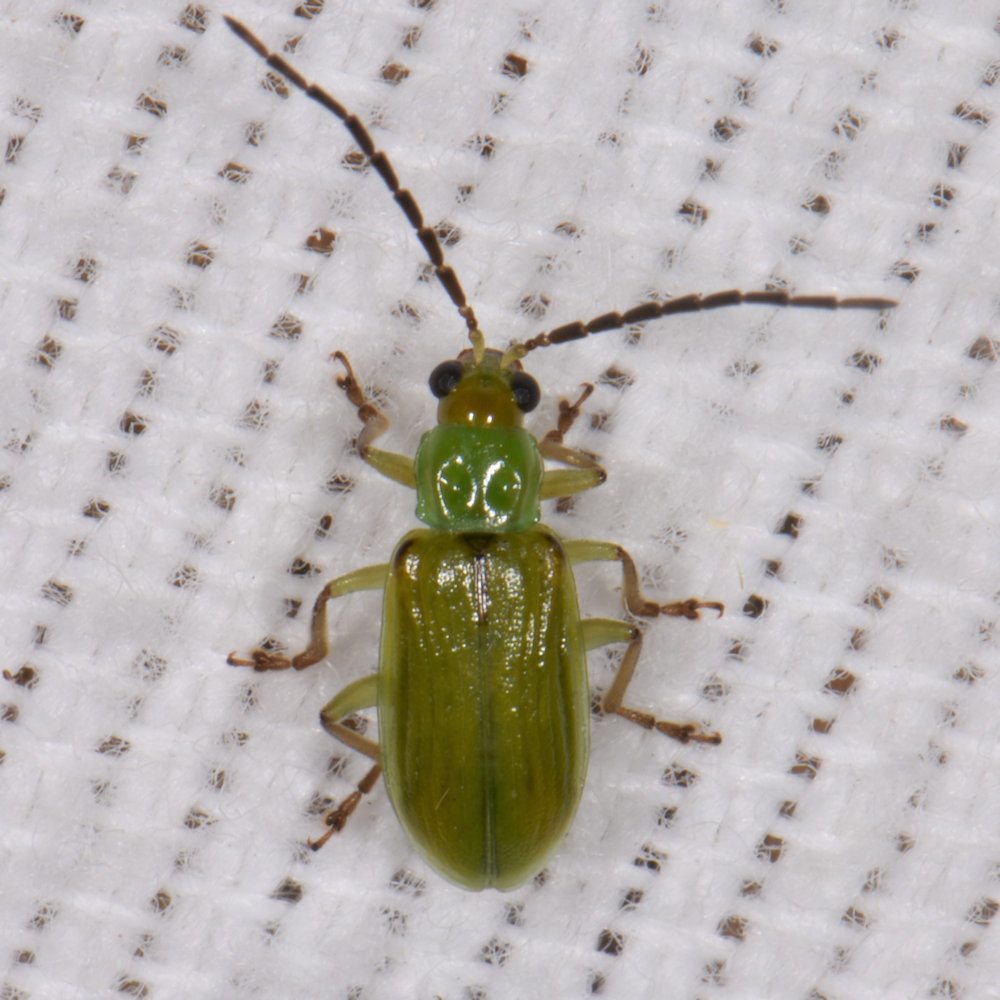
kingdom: Animalia
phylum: Arthropoda
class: Insecta
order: Coleoptera
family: Chrysomelidae
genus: Diabrotica
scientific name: Diabrotica barberi
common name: Northern corn rootworm
